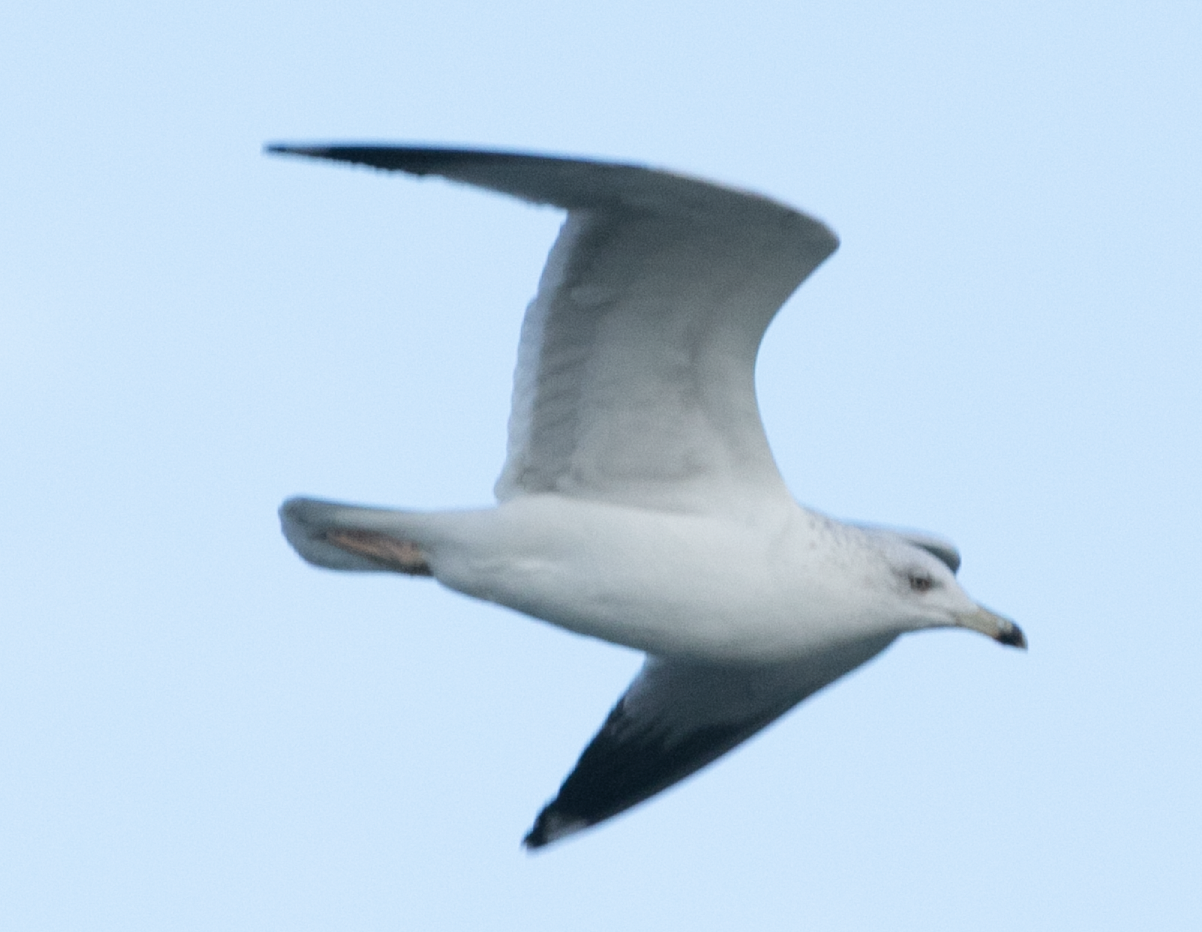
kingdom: Animalia
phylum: Chordata
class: Aves
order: Charadriiformes
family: Laridae
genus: Larus
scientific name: Larus michahellis
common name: Yellow-legged gull
